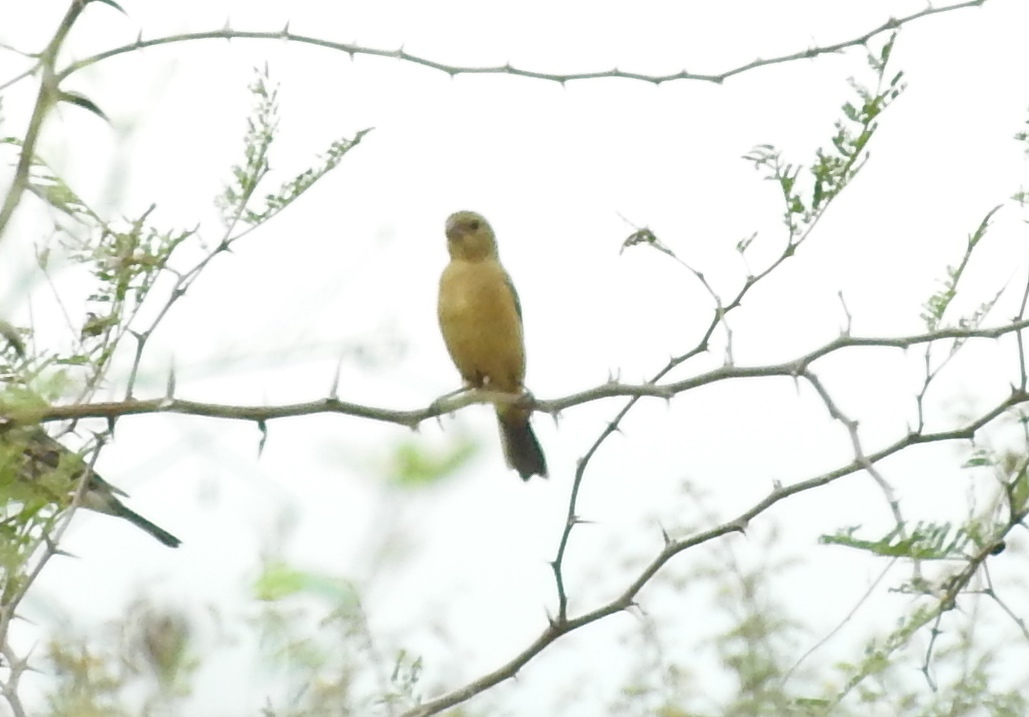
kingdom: Animalia
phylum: Chordata
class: Aves
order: Passeriformes
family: Thraupidae
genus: Sporophila
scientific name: Sporophila torqueola
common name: White-collared seedeater
